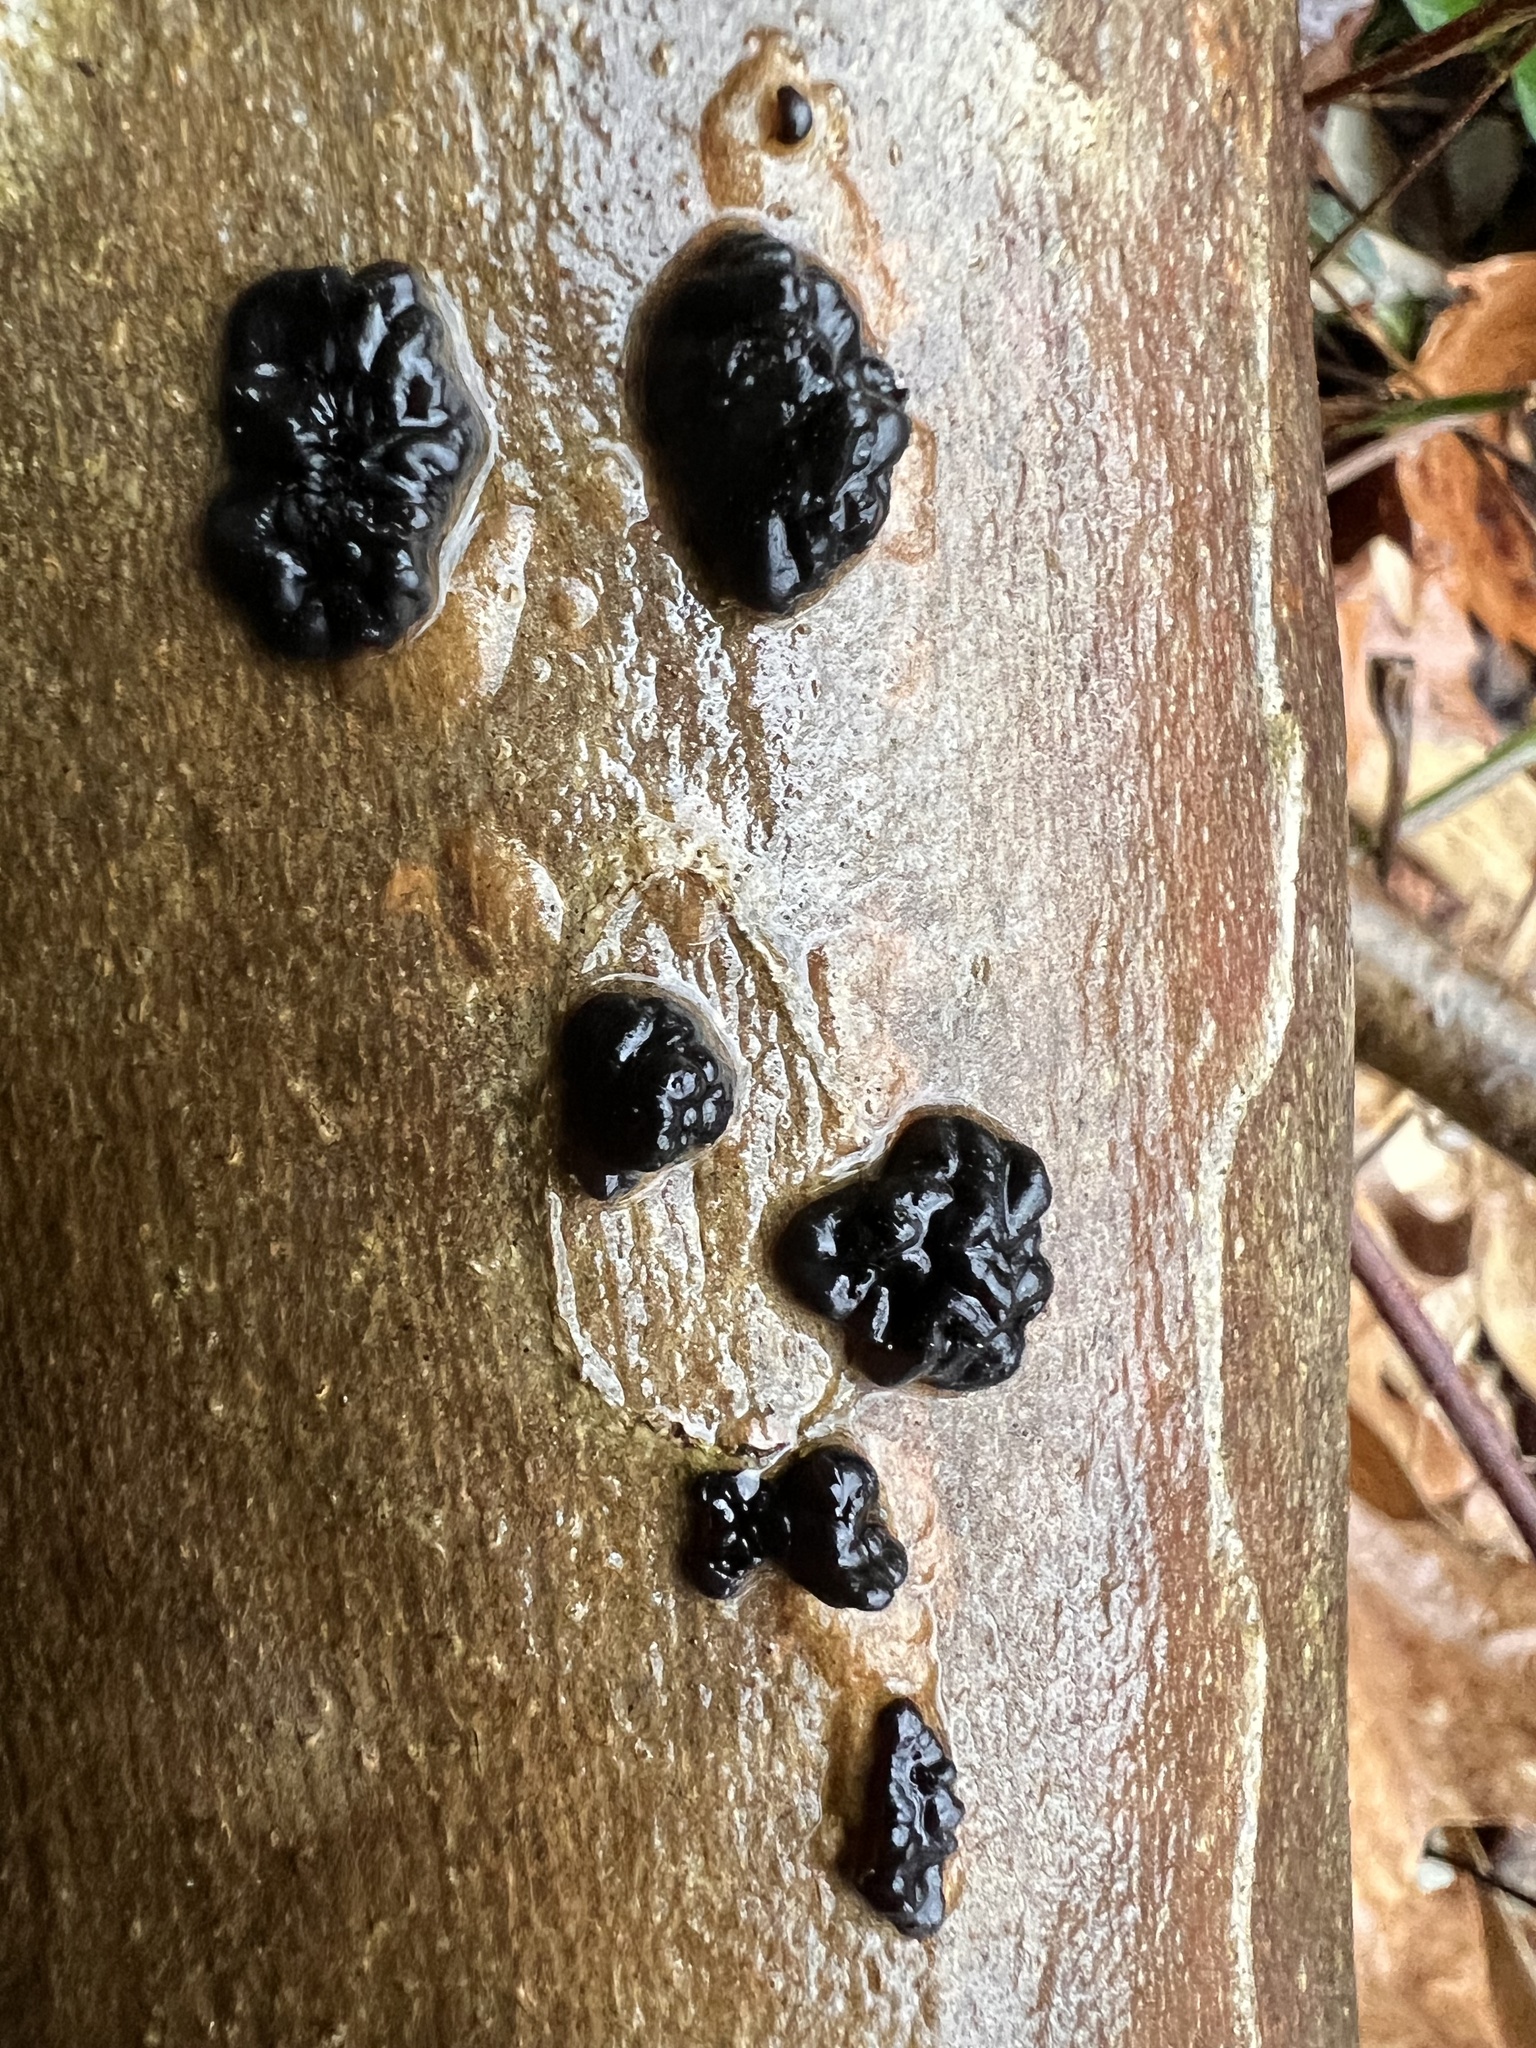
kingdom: Fungi
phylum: Basidiomycota
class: Agaricomycetes
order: Auriculariales
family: Auriculariaceae
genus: Exidia
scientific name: Exidia glandulosa
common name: Witches' butter
